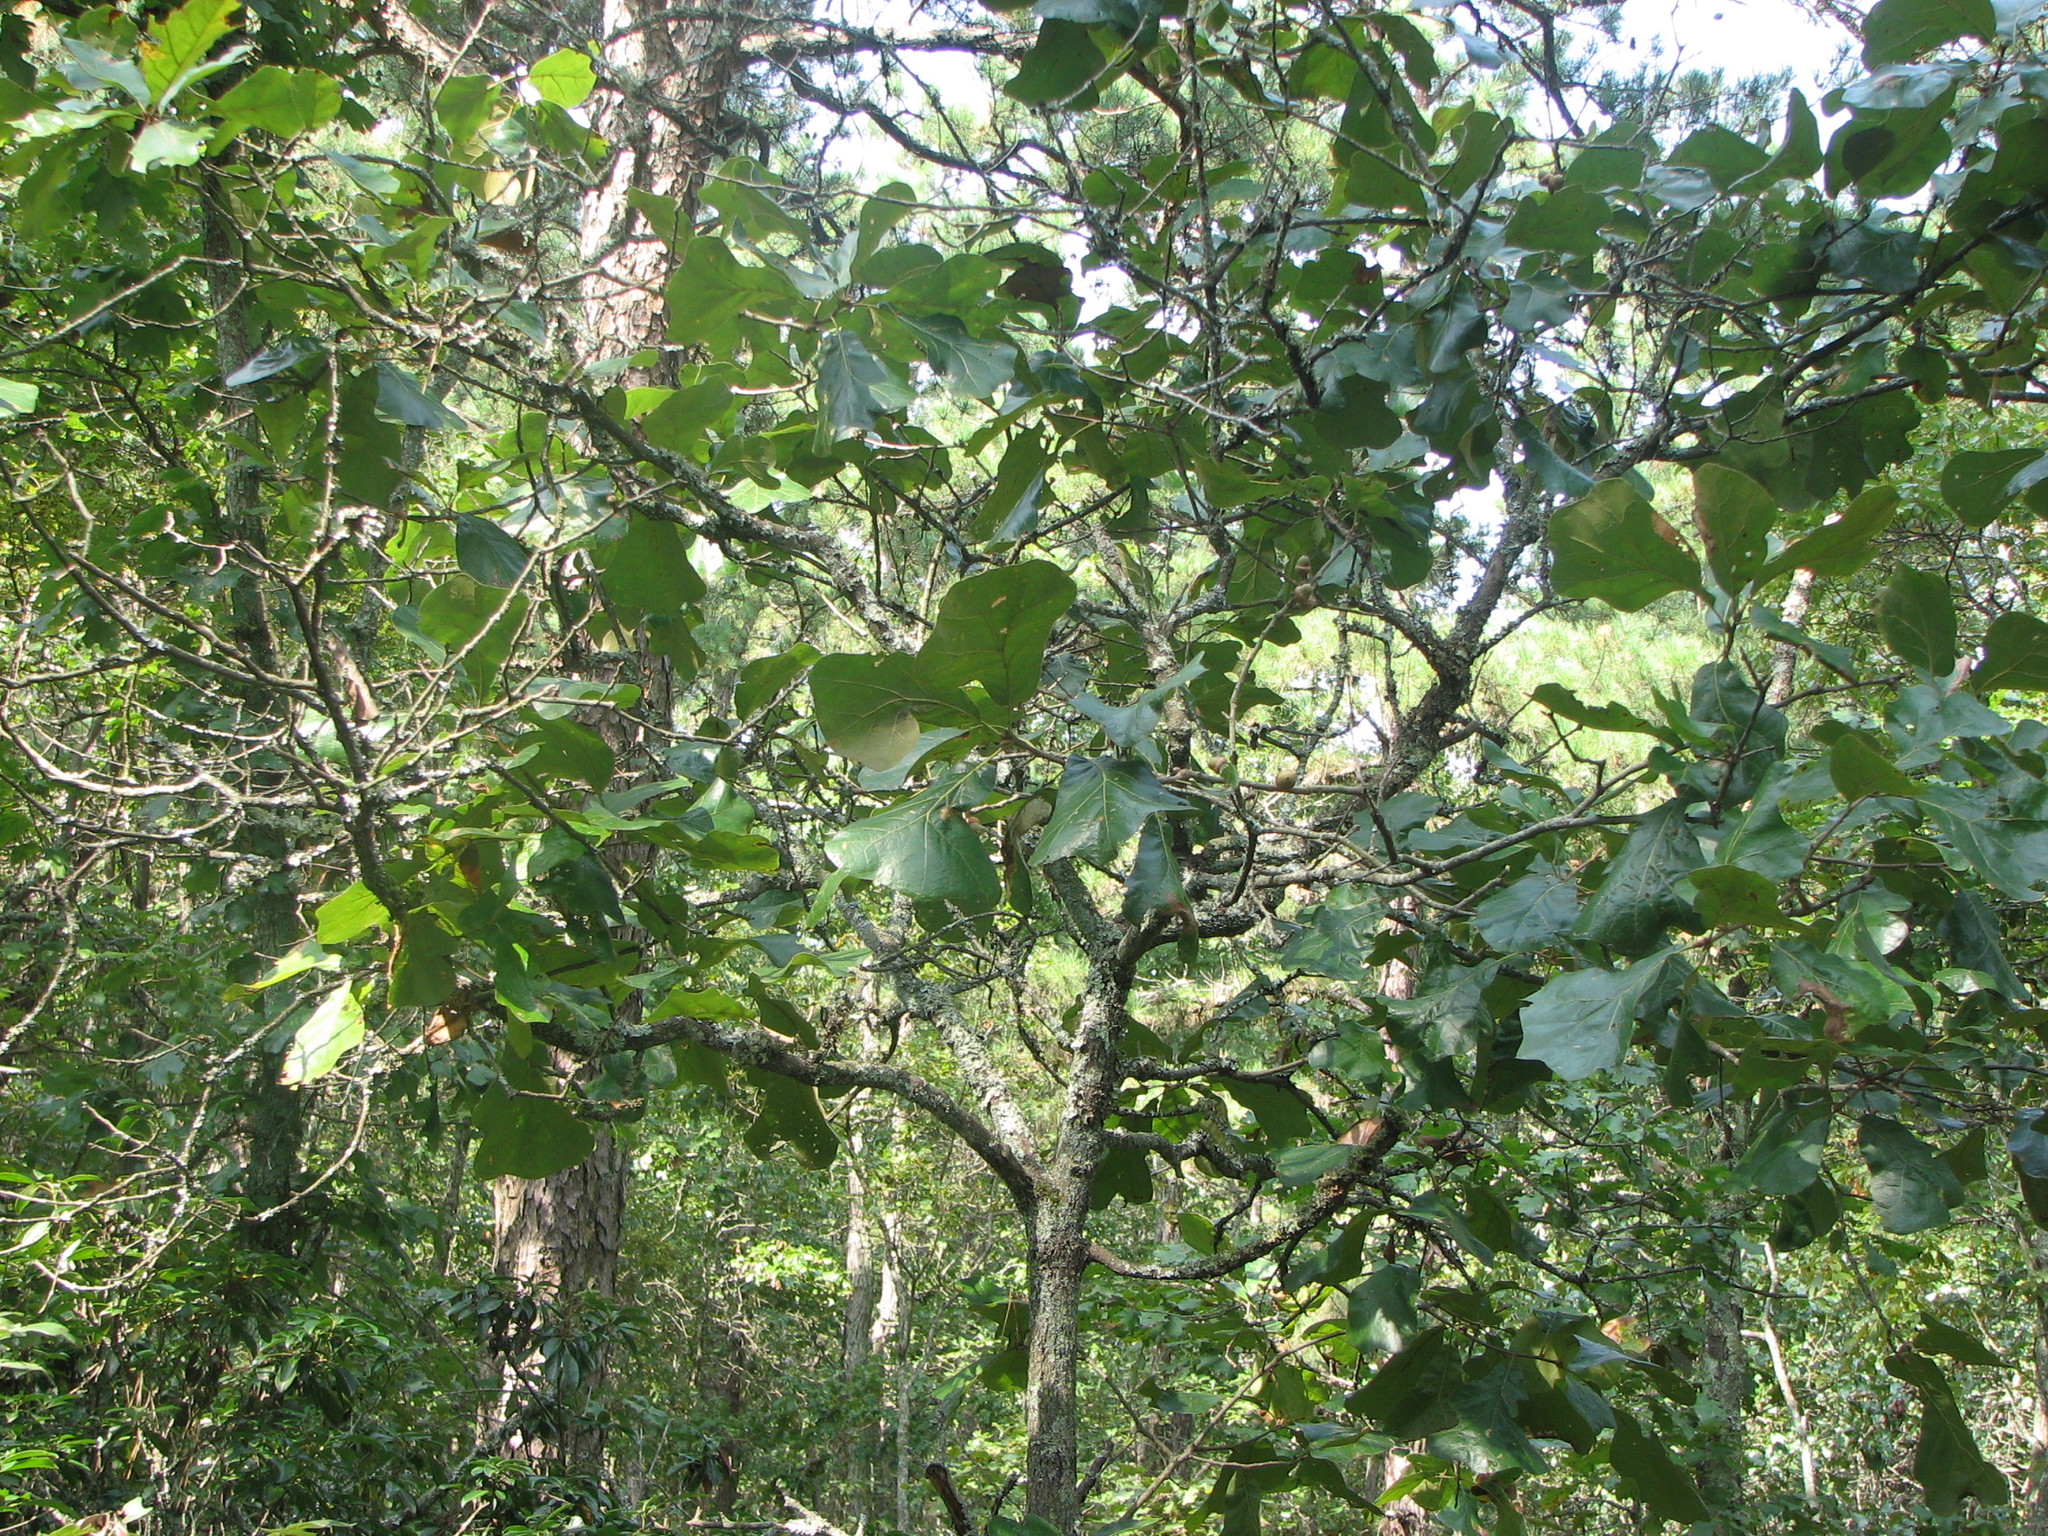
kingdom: Plantae
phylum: Tracheophyta
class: Magnoliopsida
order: Fagales
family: Fagaceae
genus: Quercus
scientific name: Quercus marilandica
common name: Blackjack oak
